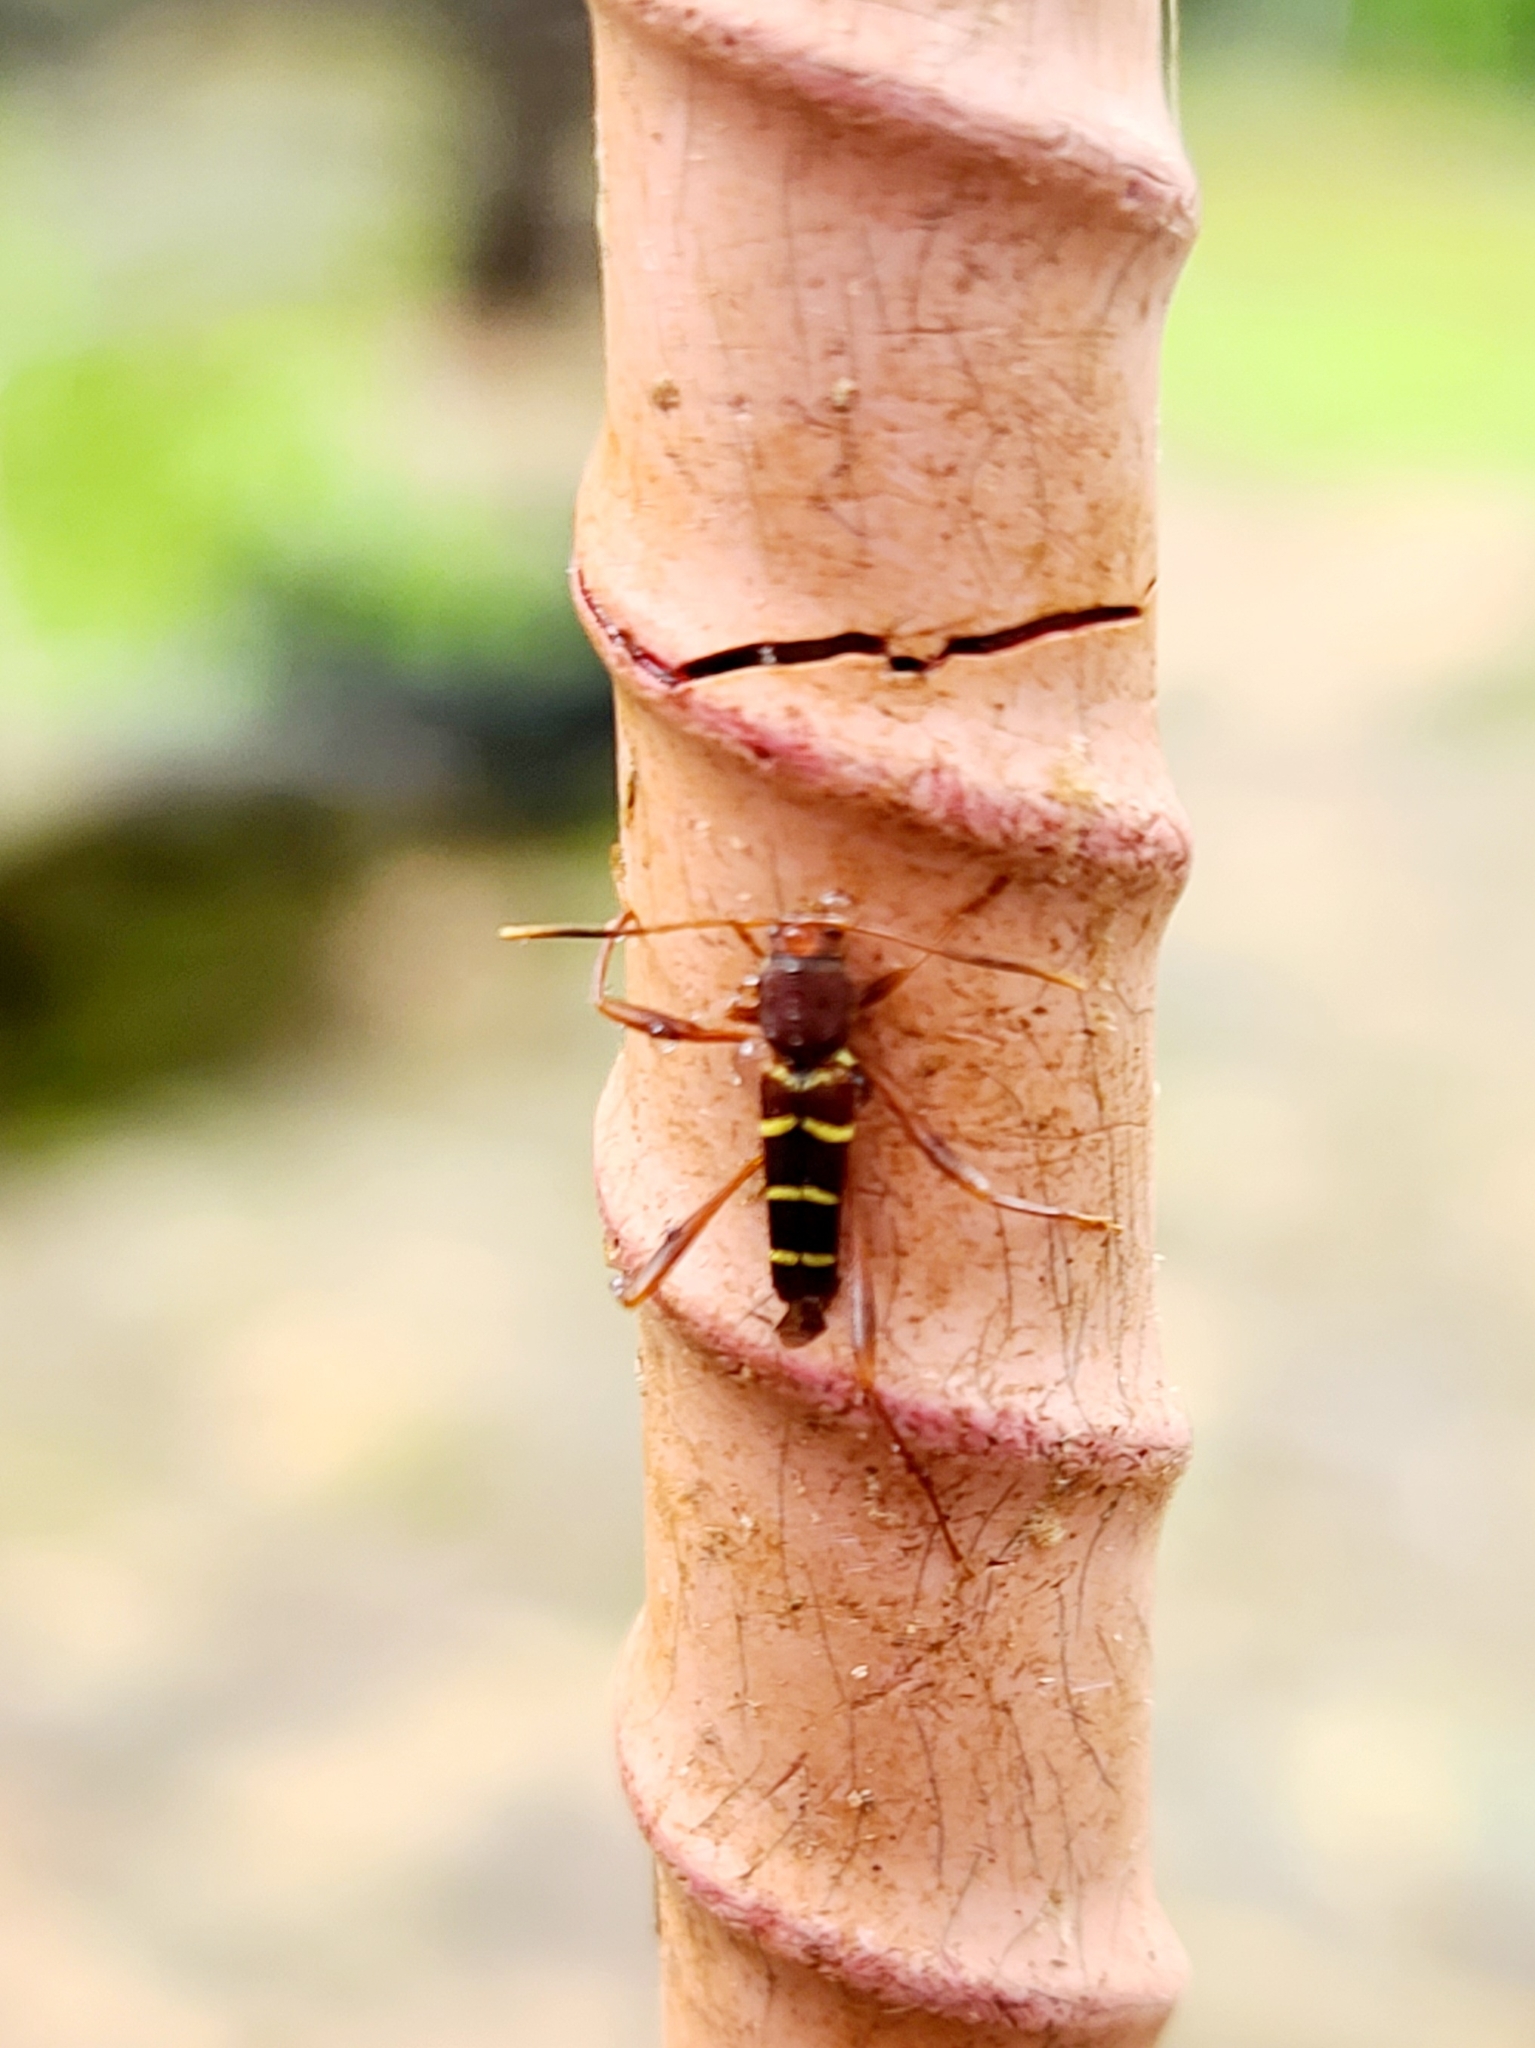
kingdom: Animalia
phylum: Arthropoda
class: Insecta
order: Coleoptera
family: Cerambycidae
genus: Neoclytus
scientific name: Neoclytus acuminatus
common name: Read-headed ash borer
